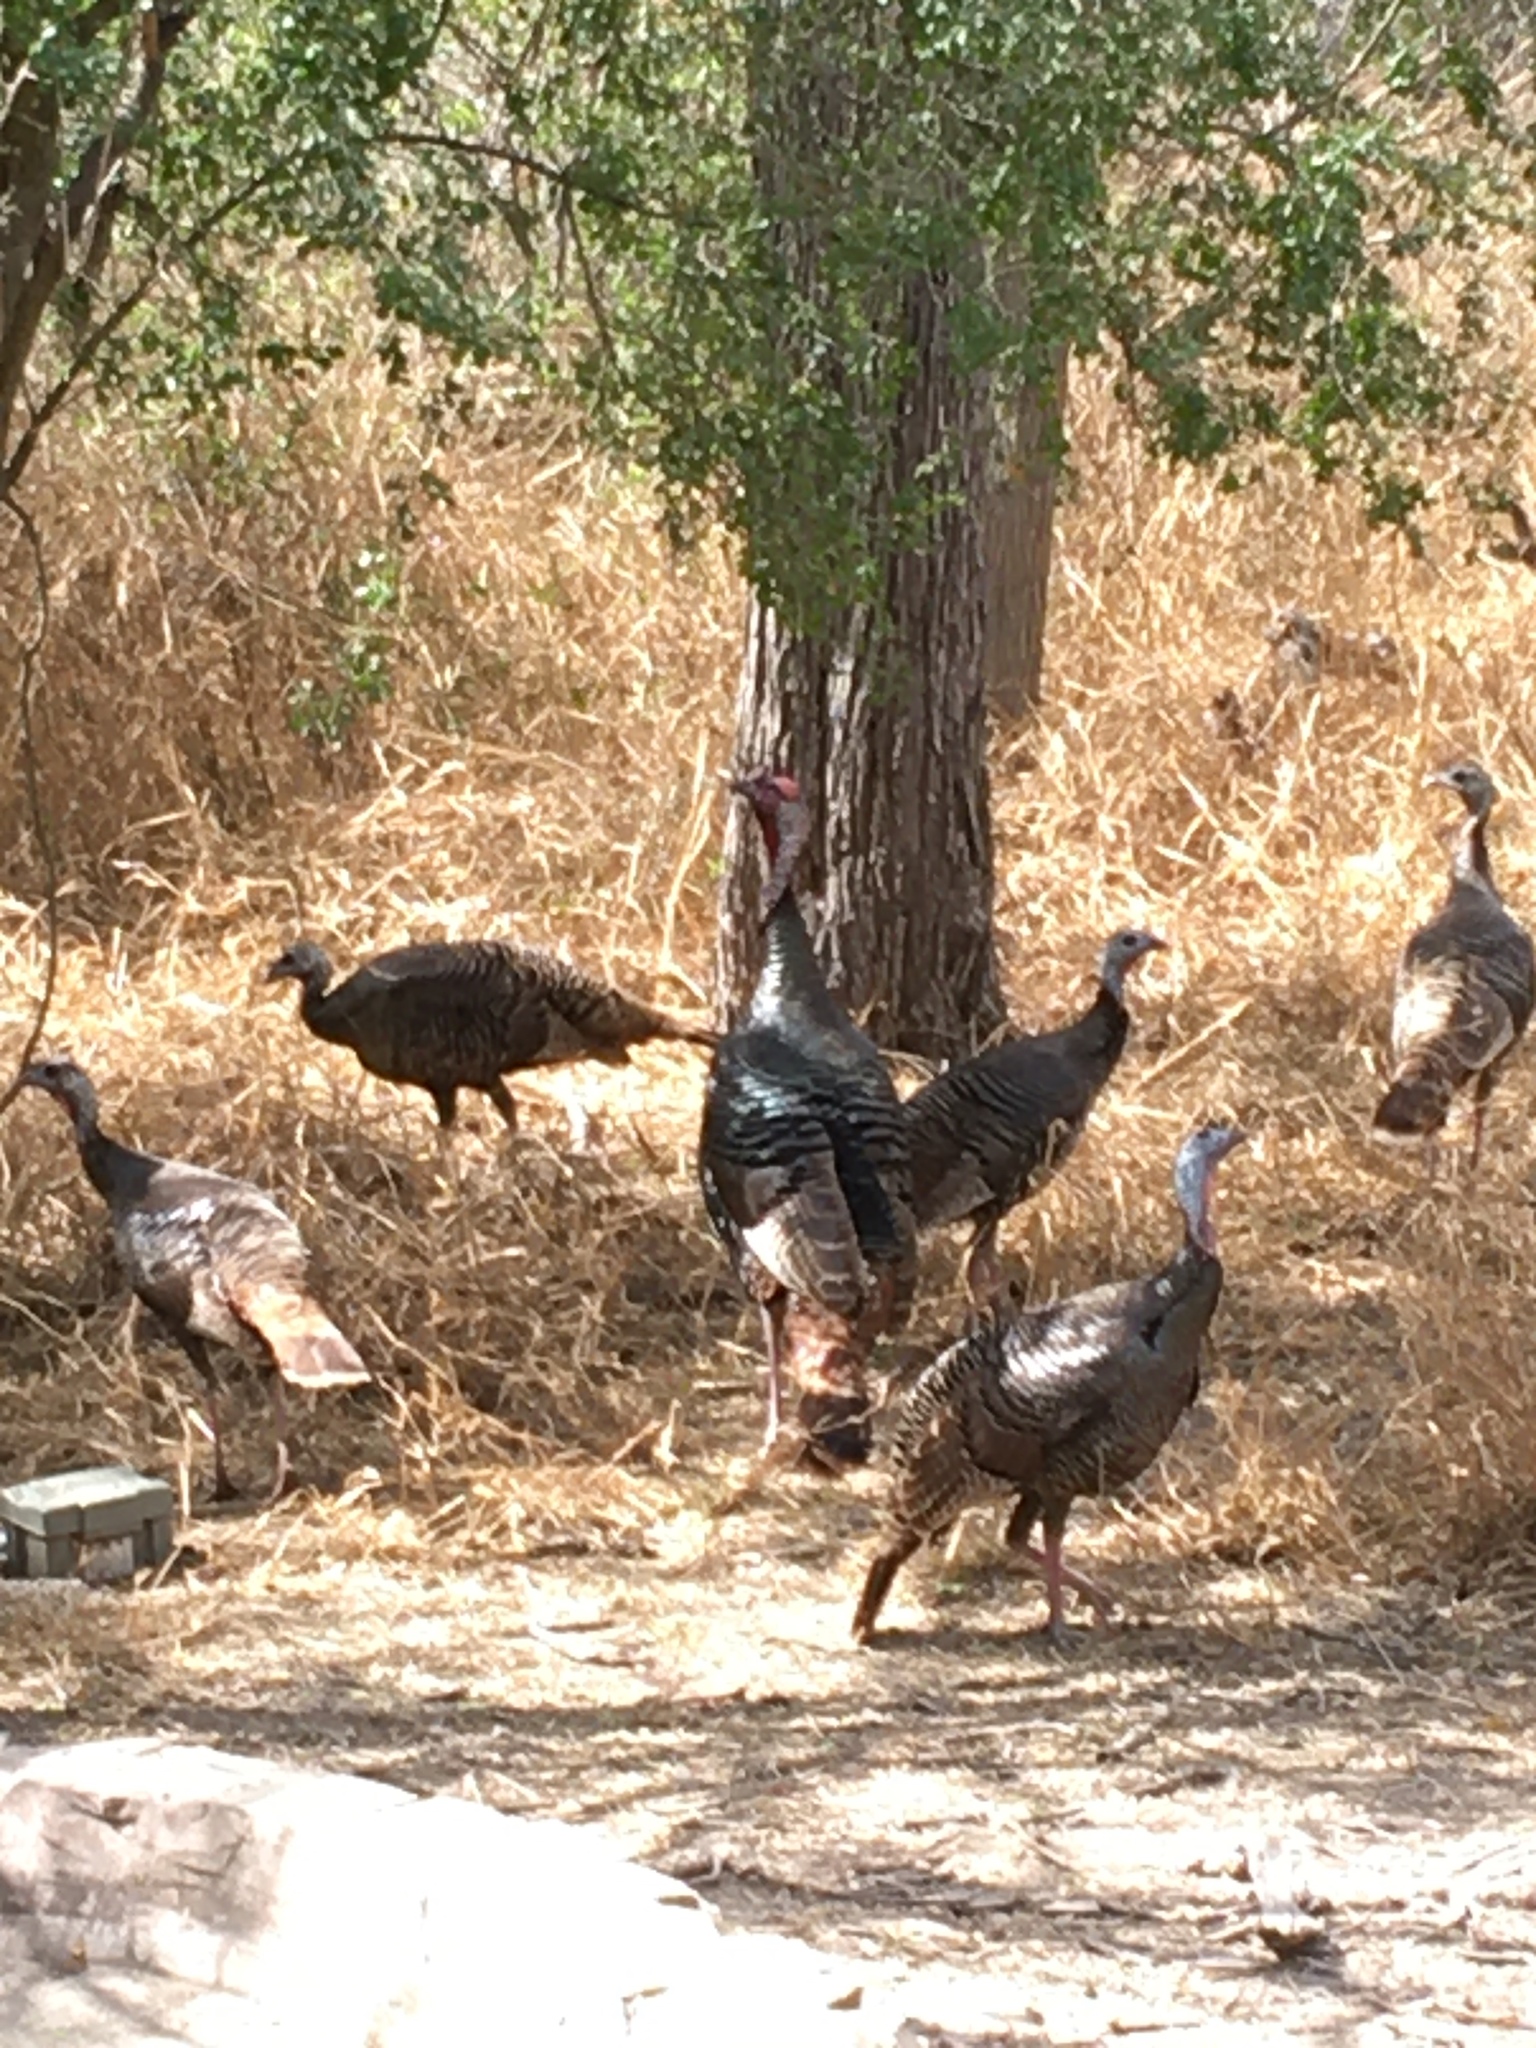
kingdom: Animalia
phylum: Chordata
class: Aves
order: Galliformes
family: Phasianidae
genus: Meleagris
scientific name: Meleagris gallopavo
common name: Wild turkey
